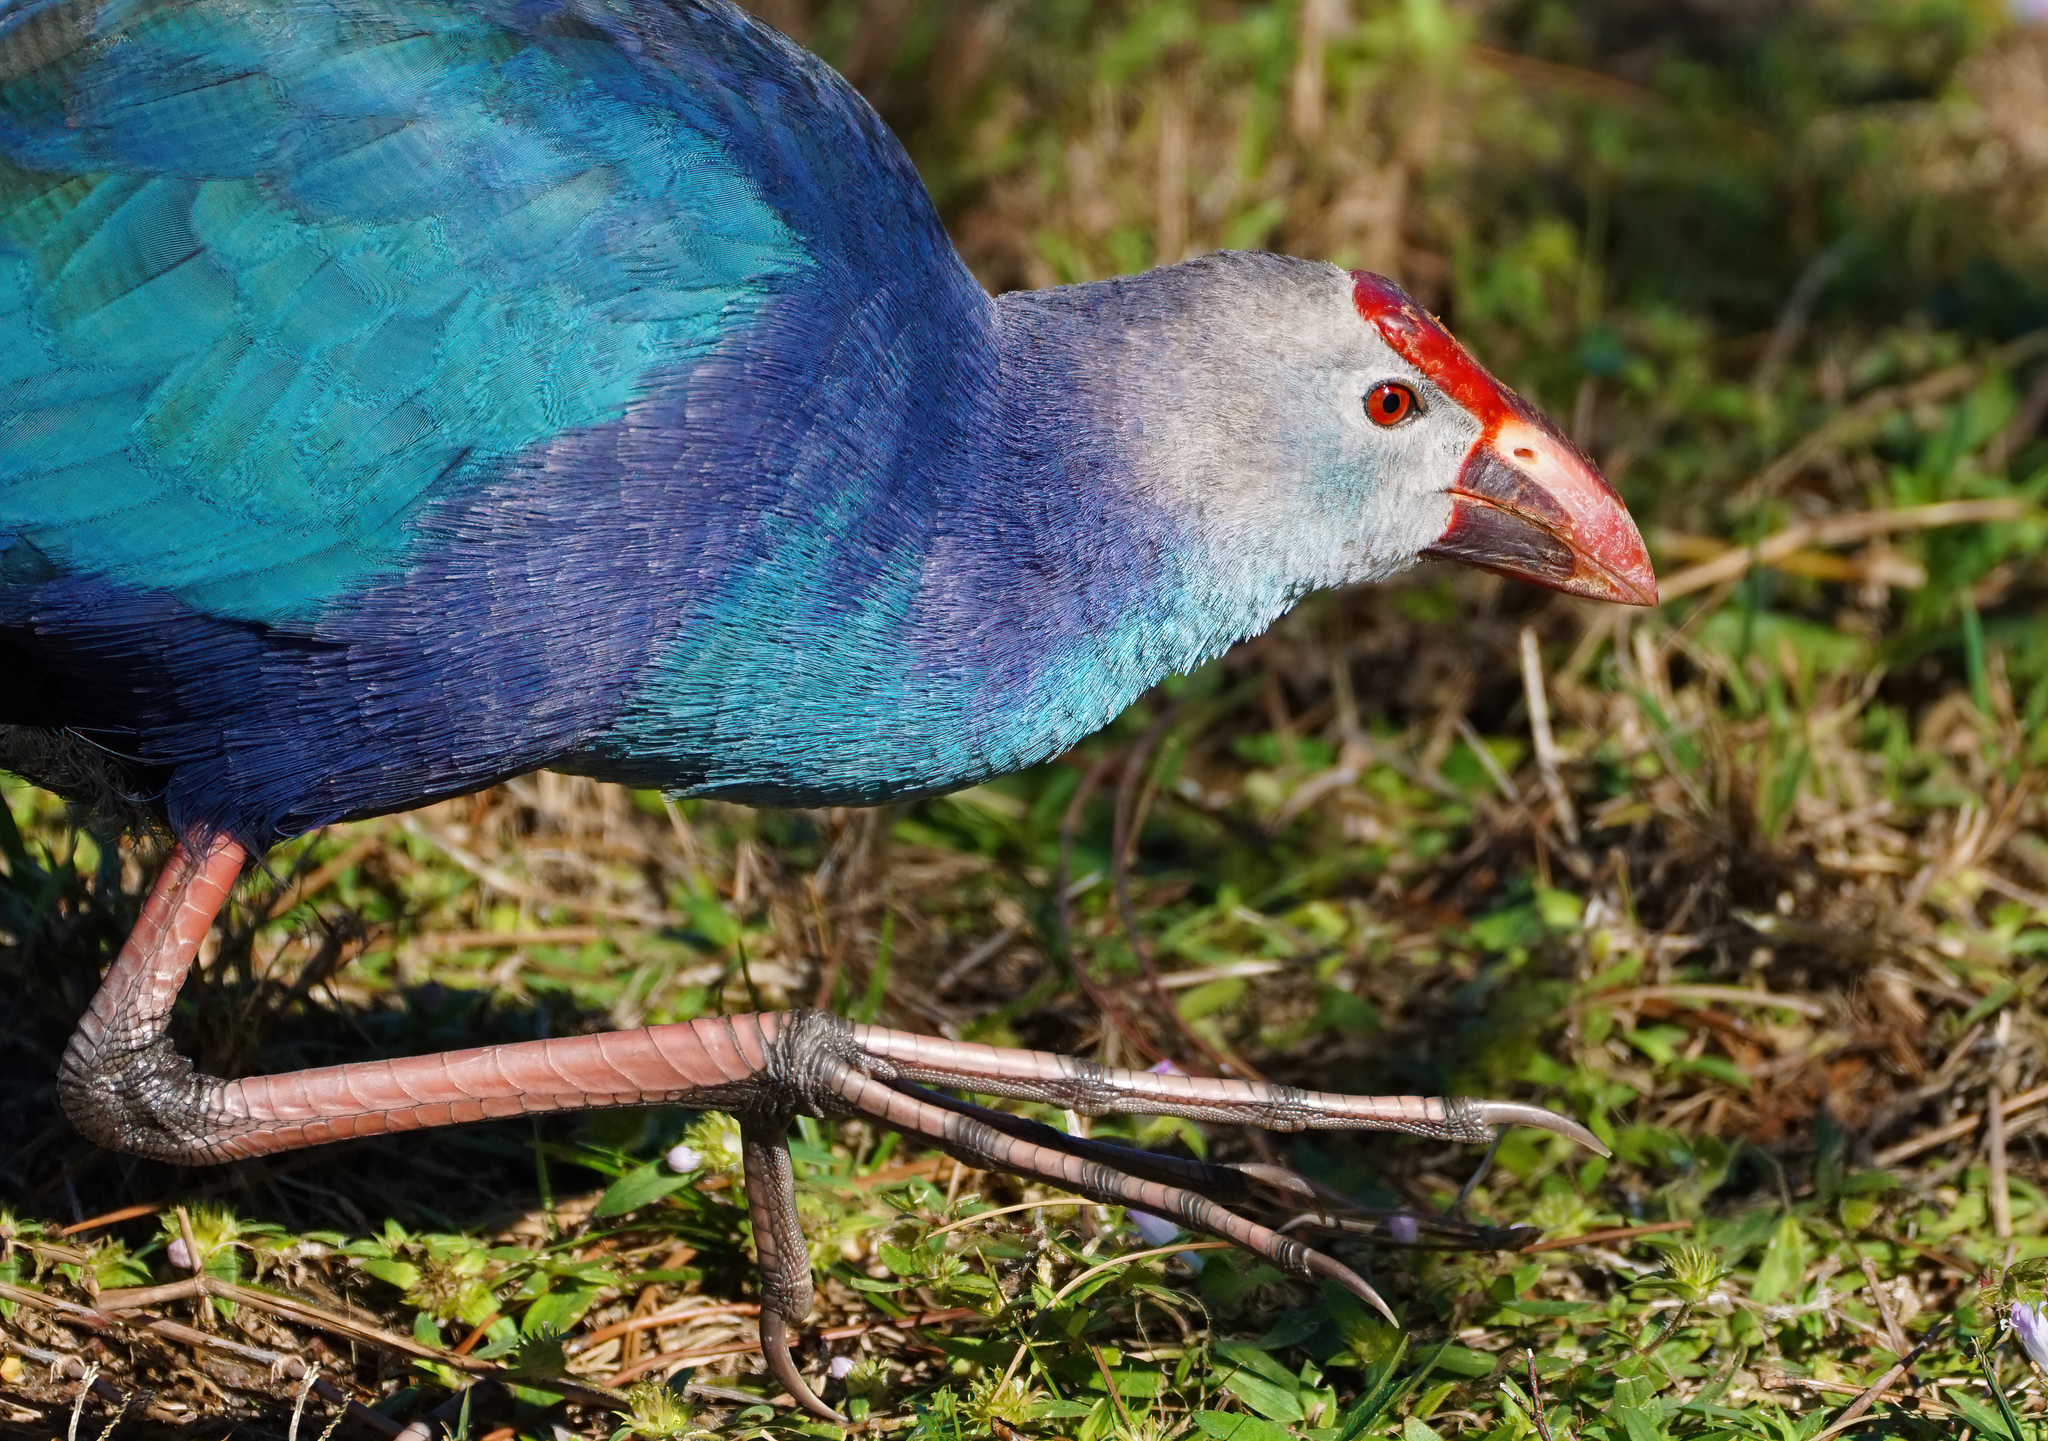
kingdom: Animalia
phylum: Chordata
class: Aves
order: Gruiformes
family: Rallidae
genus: Porphyrio
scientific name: Porphyrio porphyrio
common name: Purple swamphen
